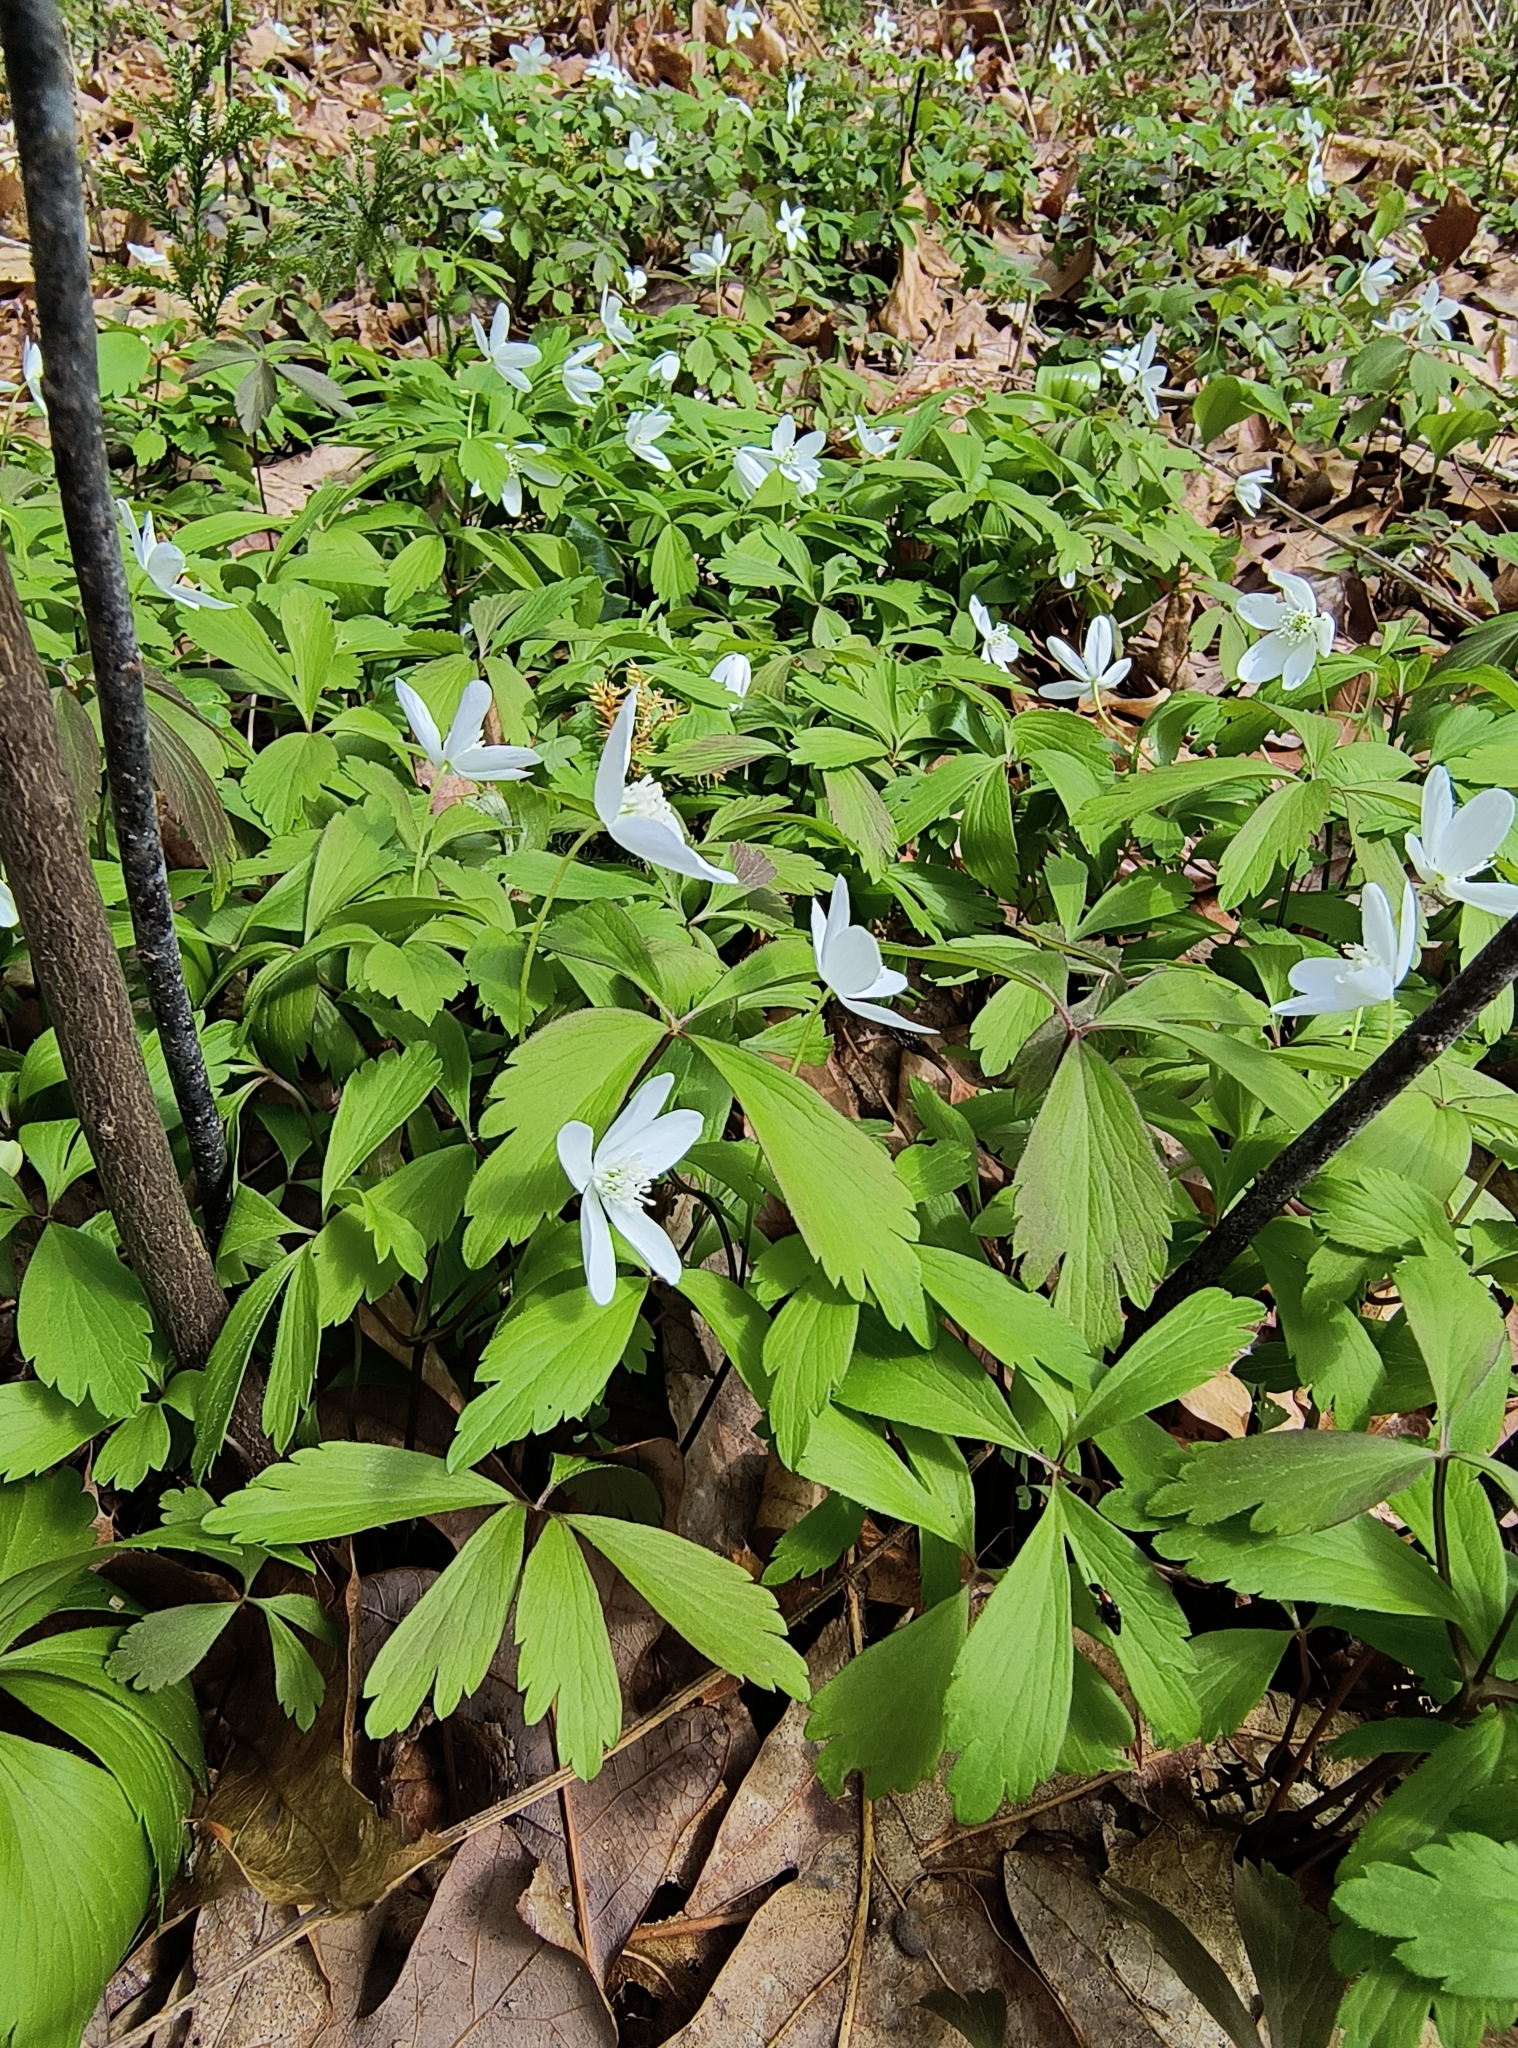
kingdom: Plantae
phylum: Tracheophyta
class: Magnoliopsida
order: Ranunculales
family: Ranunculaceae
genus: Anemone
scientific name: Anemone quinquefolia
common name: Wood anemone
